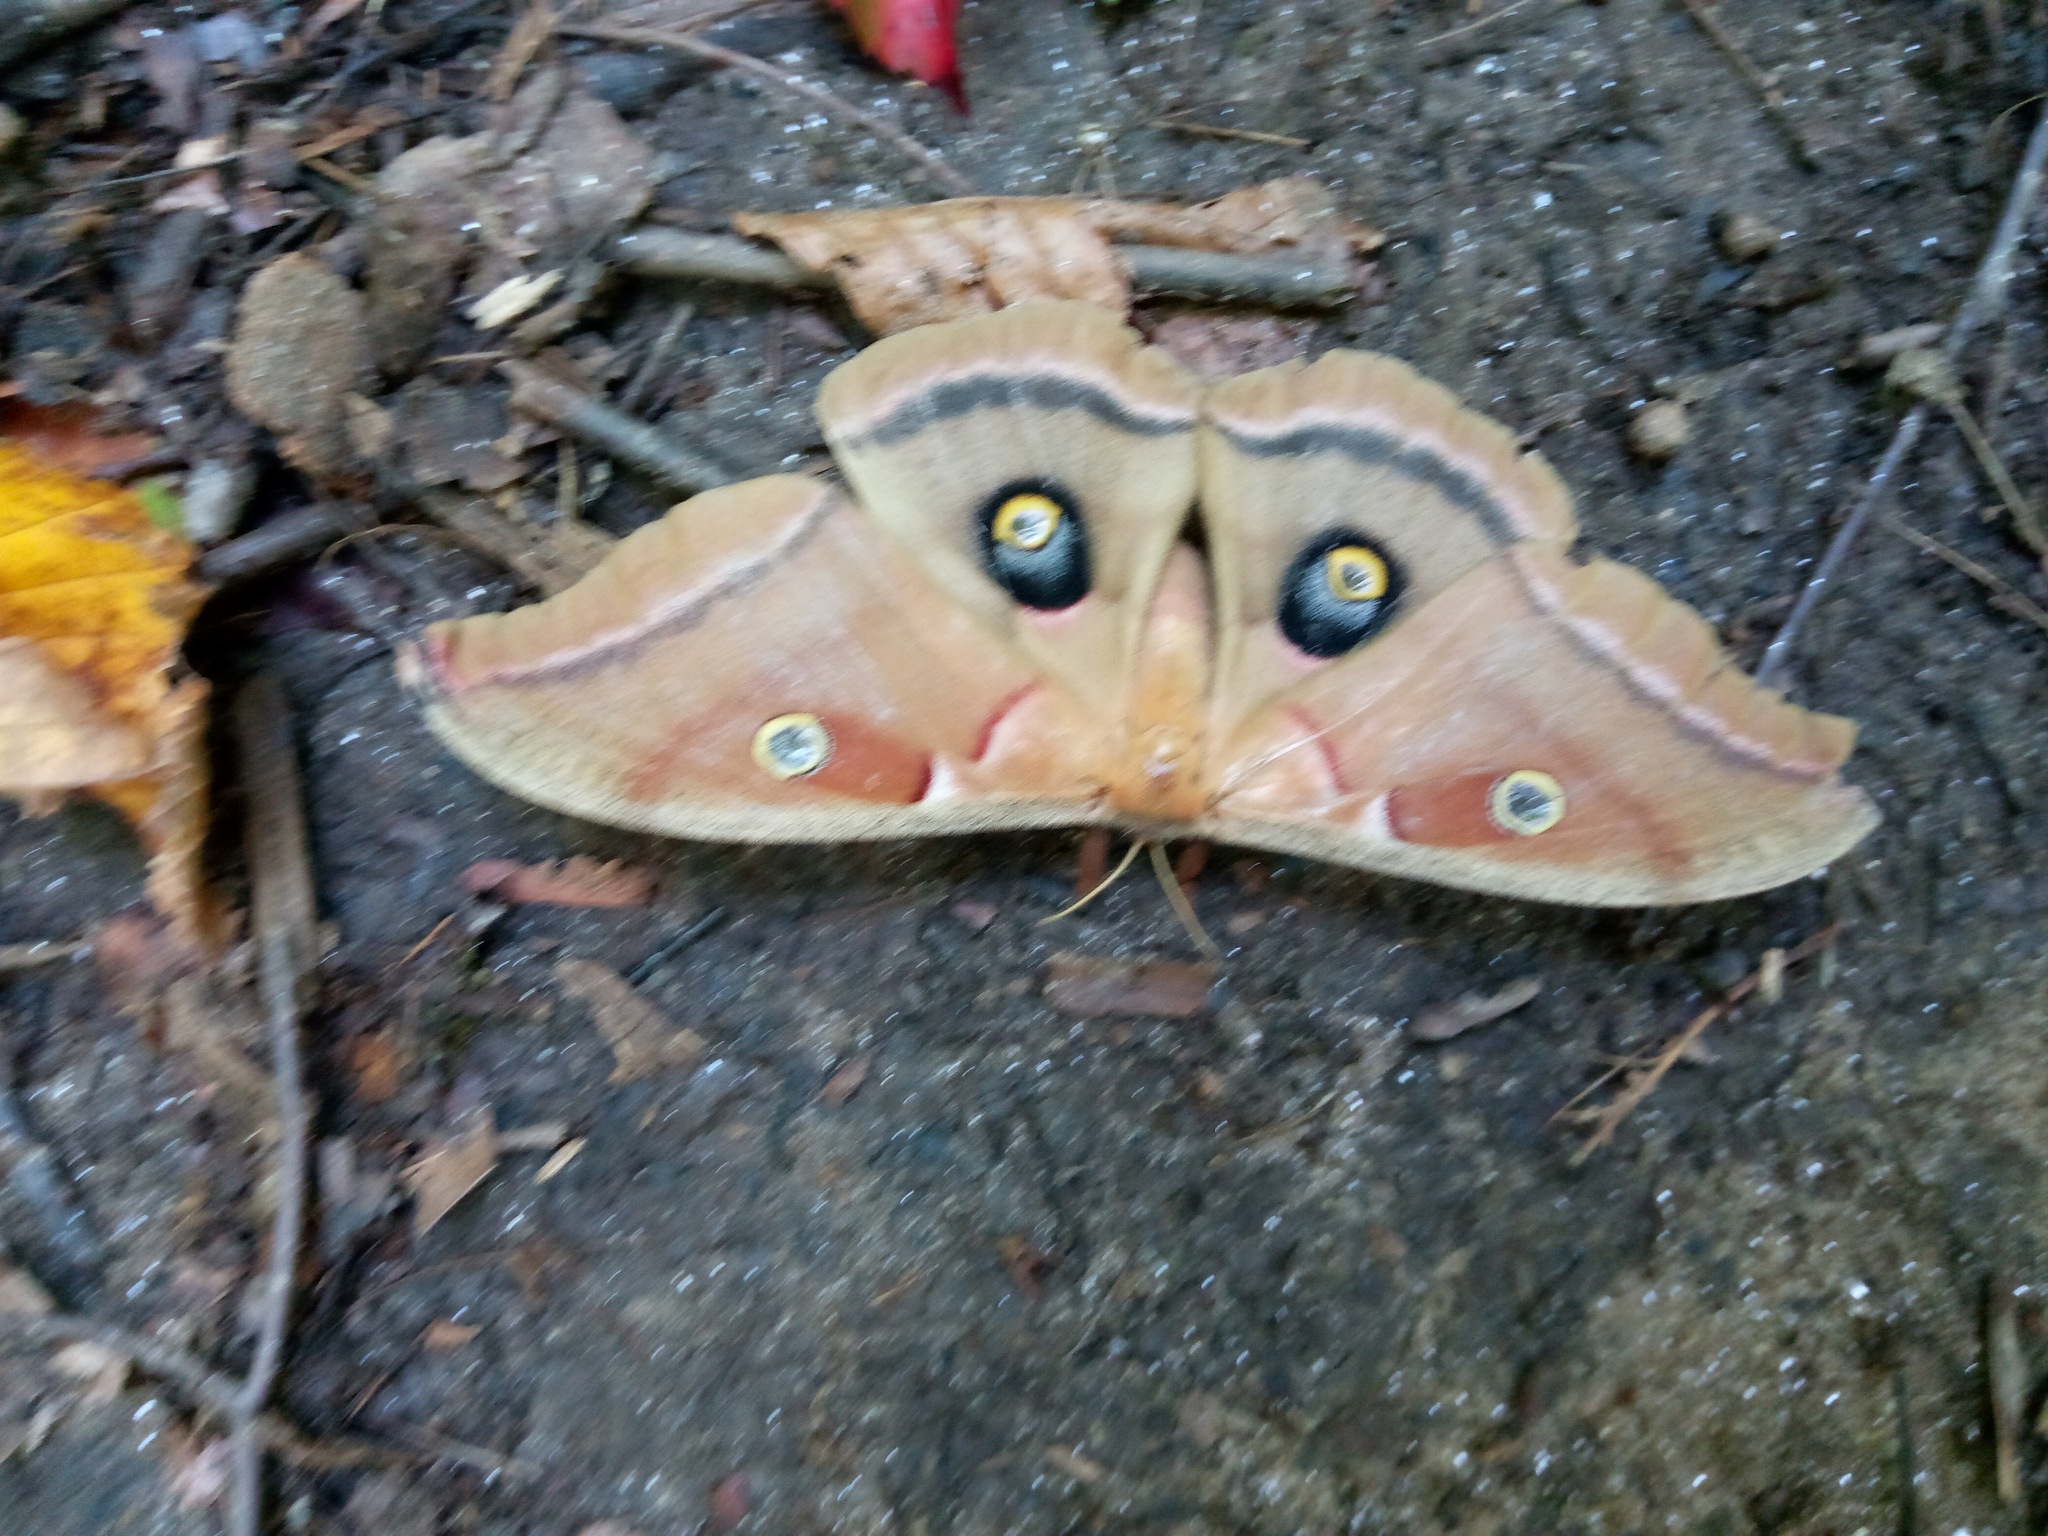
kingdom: Animalia
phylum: Arthropoda
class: Insecta
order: Lepidoptera
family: Saturniidae
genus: Antheraea
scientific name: Antheraea polyphemus
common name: Polyphemus moth
